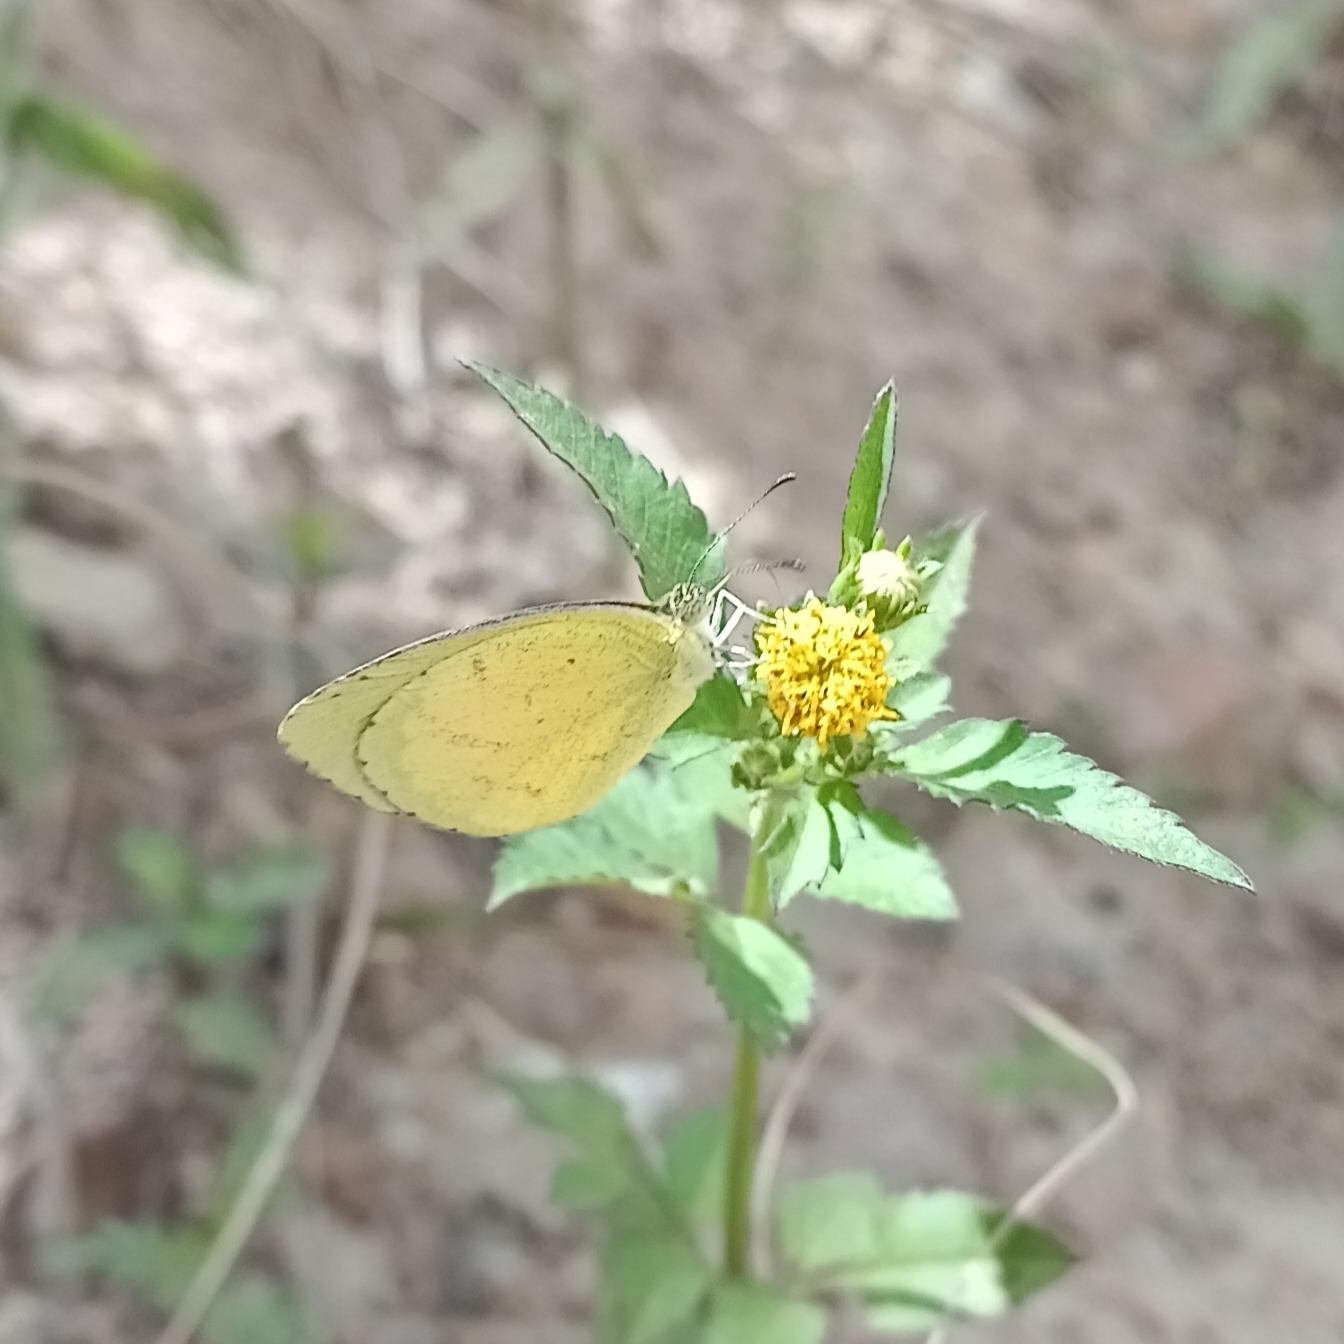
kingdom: Animalia
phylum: Arthropoda
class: Insecta
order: Lepidoptera
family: Pieridae
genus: Eurema
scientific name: Eurema brigitta
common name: Small grass yellow
